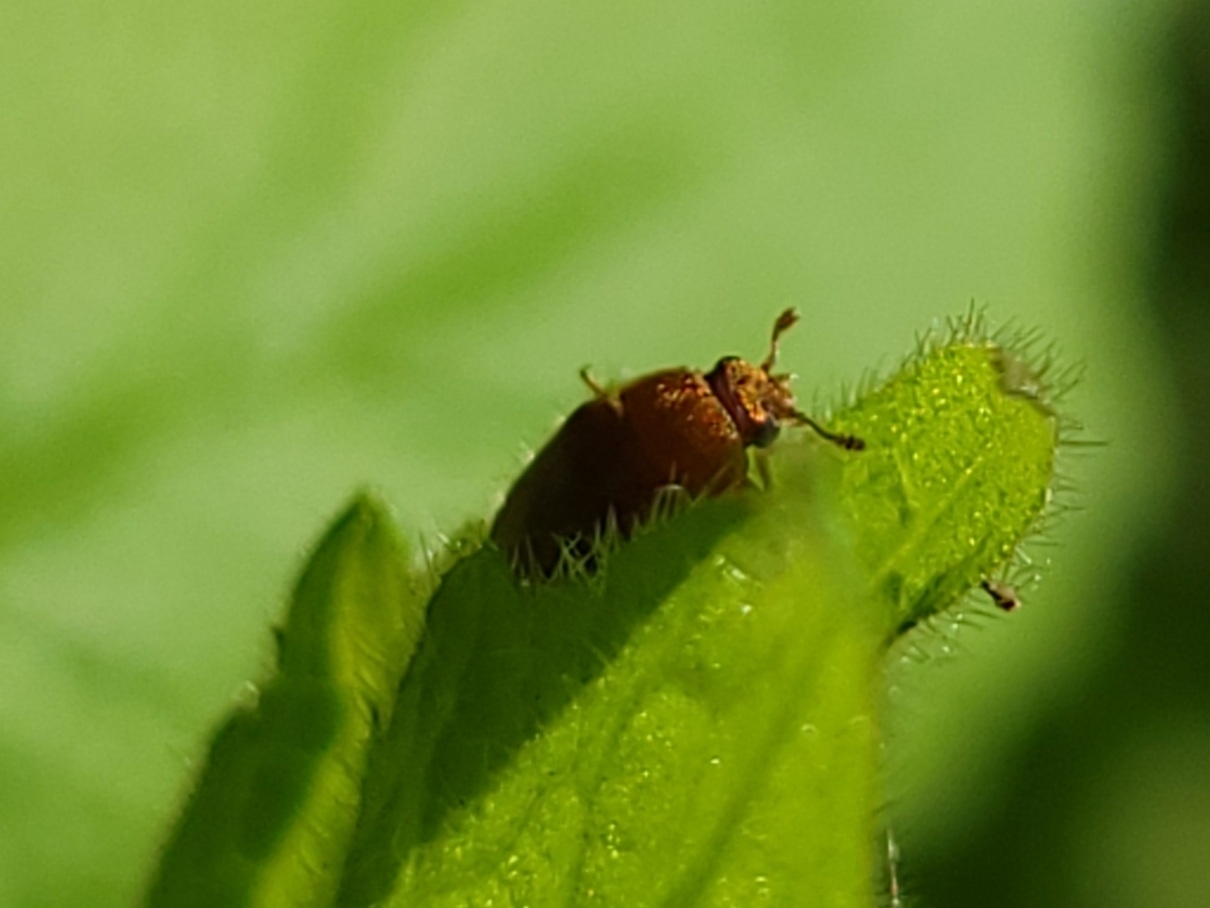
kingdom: Animalia
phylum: Arthropoda
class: Insecta
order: Coleoptera
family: Byturidae
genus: Byturus
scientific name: Byturus unicolor
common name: Raspberry fruitworm beetle
